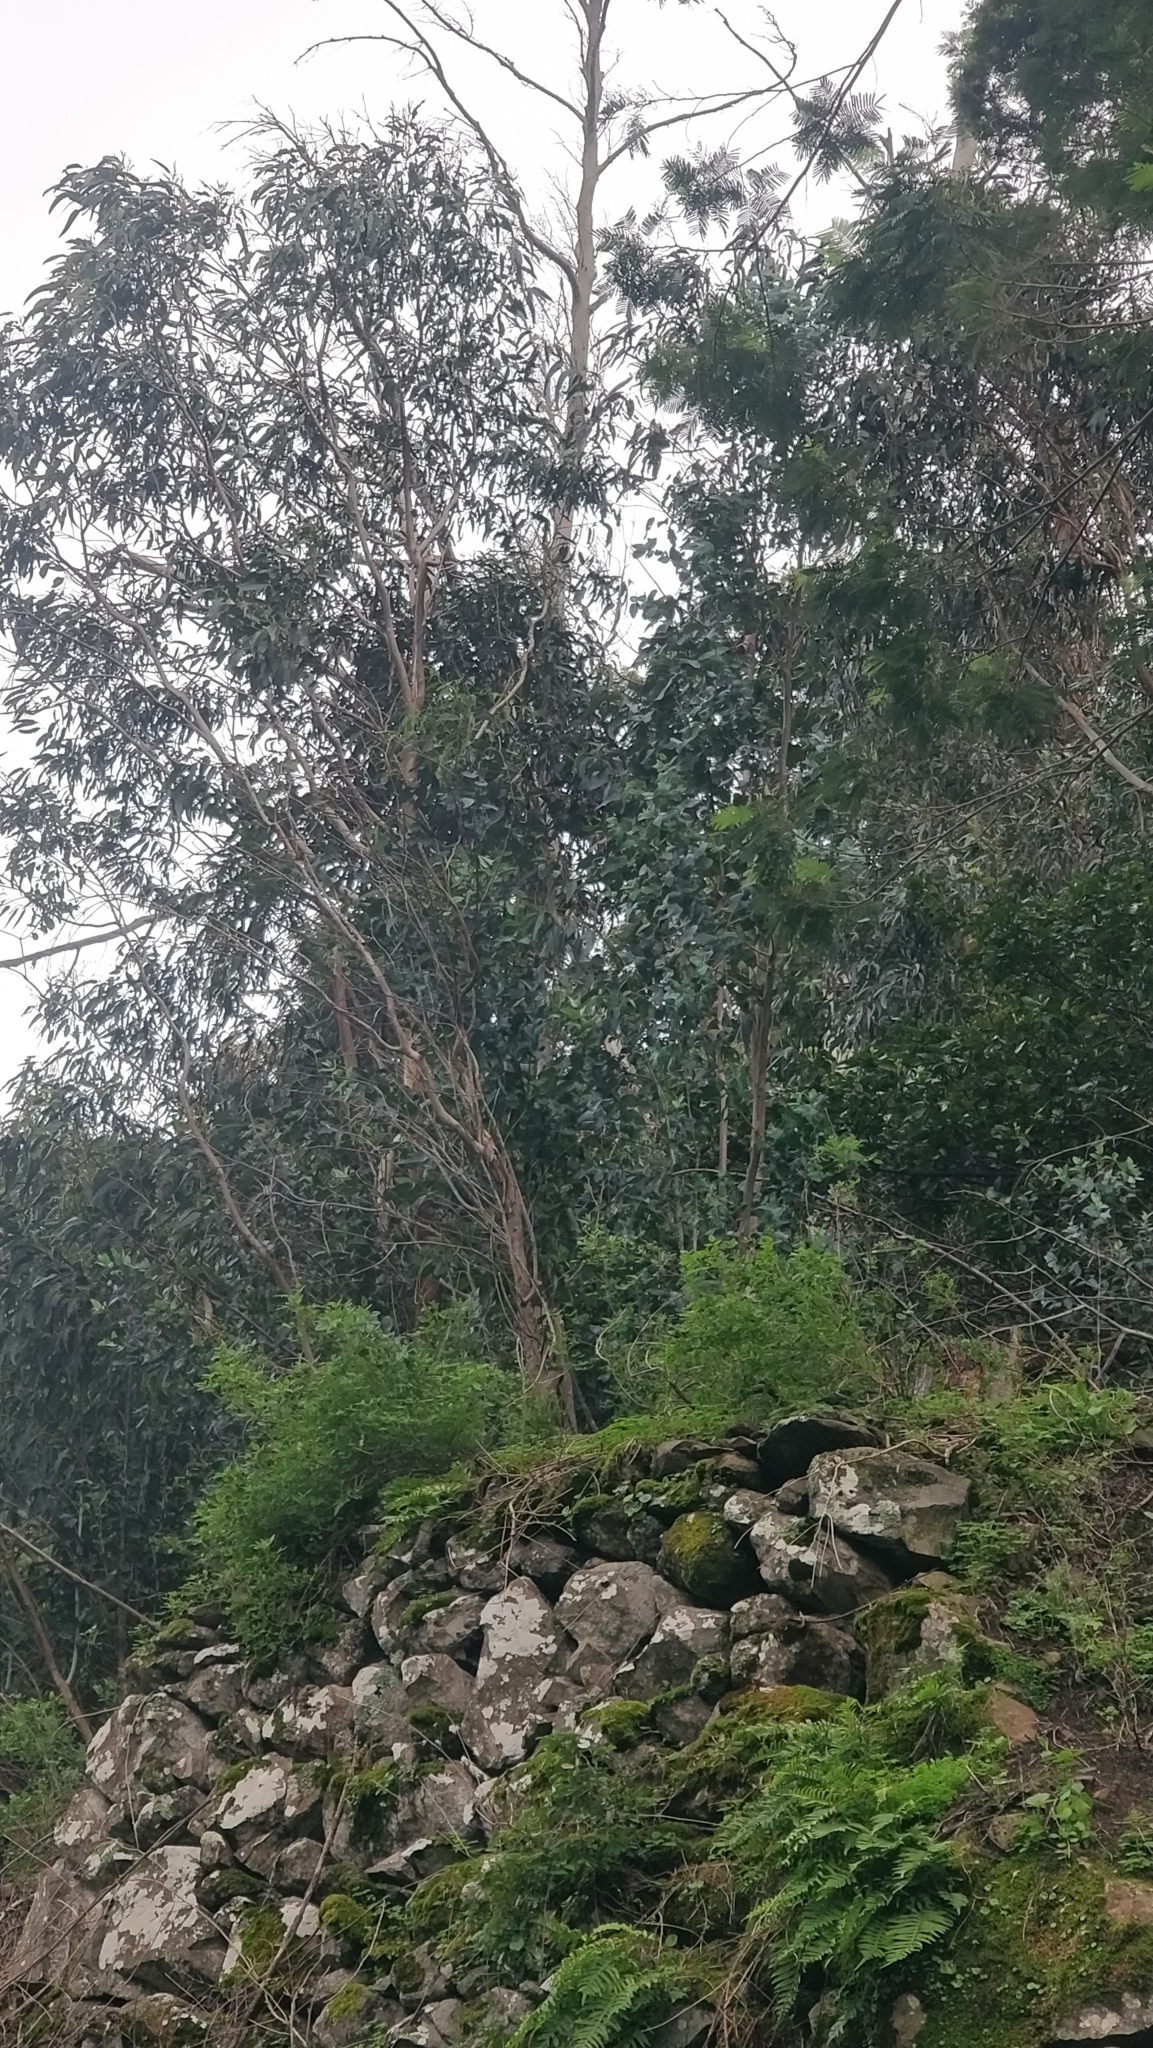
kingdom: Plantae
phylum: Tracheophyta
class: Magnoliopsida
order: Myrtales
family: Myrtaceae
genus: Eucalyptus
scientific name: Eucalyptus globulus
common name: Southern blue-gum
